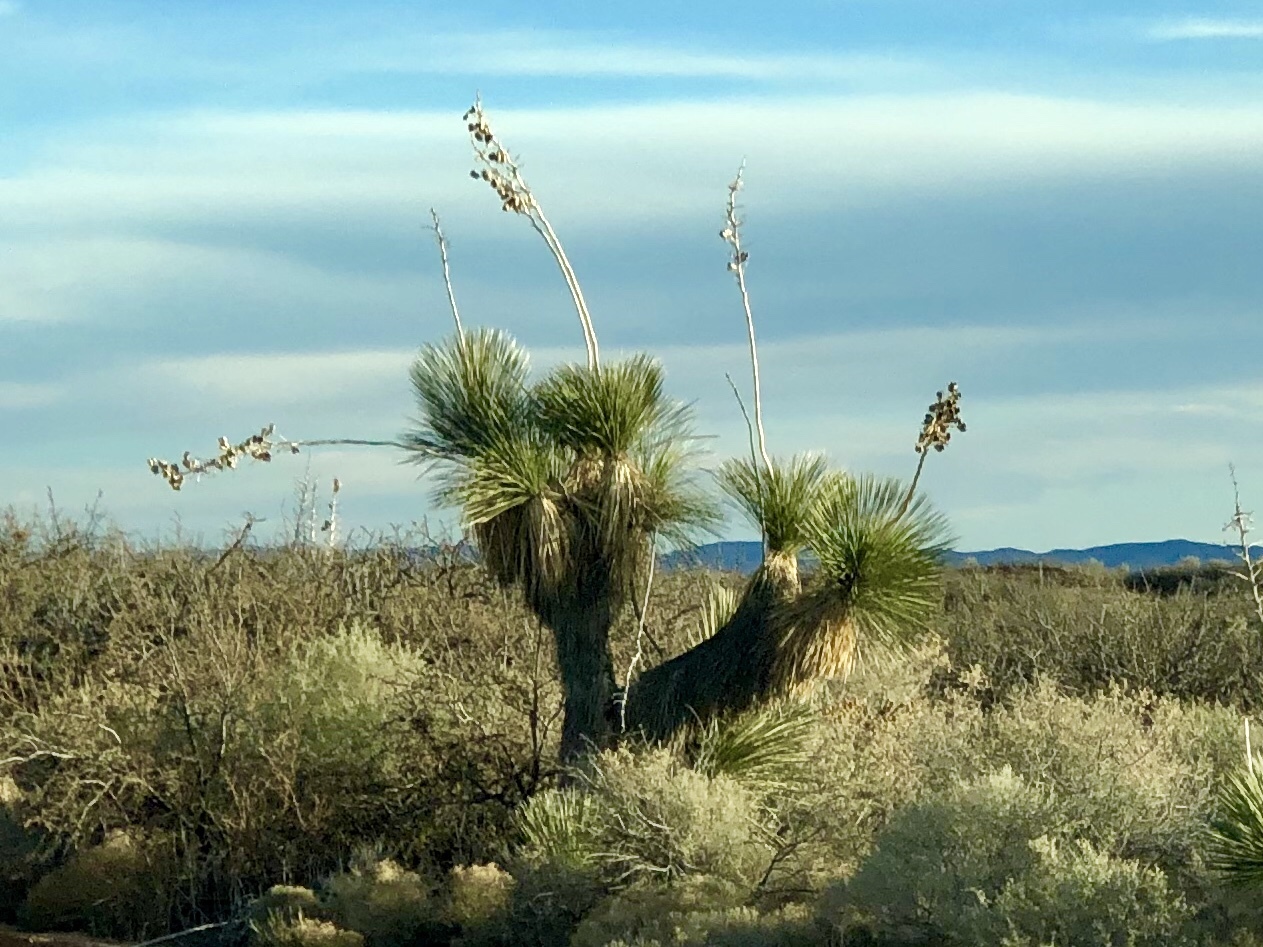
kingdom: Plantae
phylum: Tracheophyta
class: Liliopsida
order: Asparagales
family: Asparagaceae
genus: Yucca
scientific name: Yucca elata
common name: Palmella
